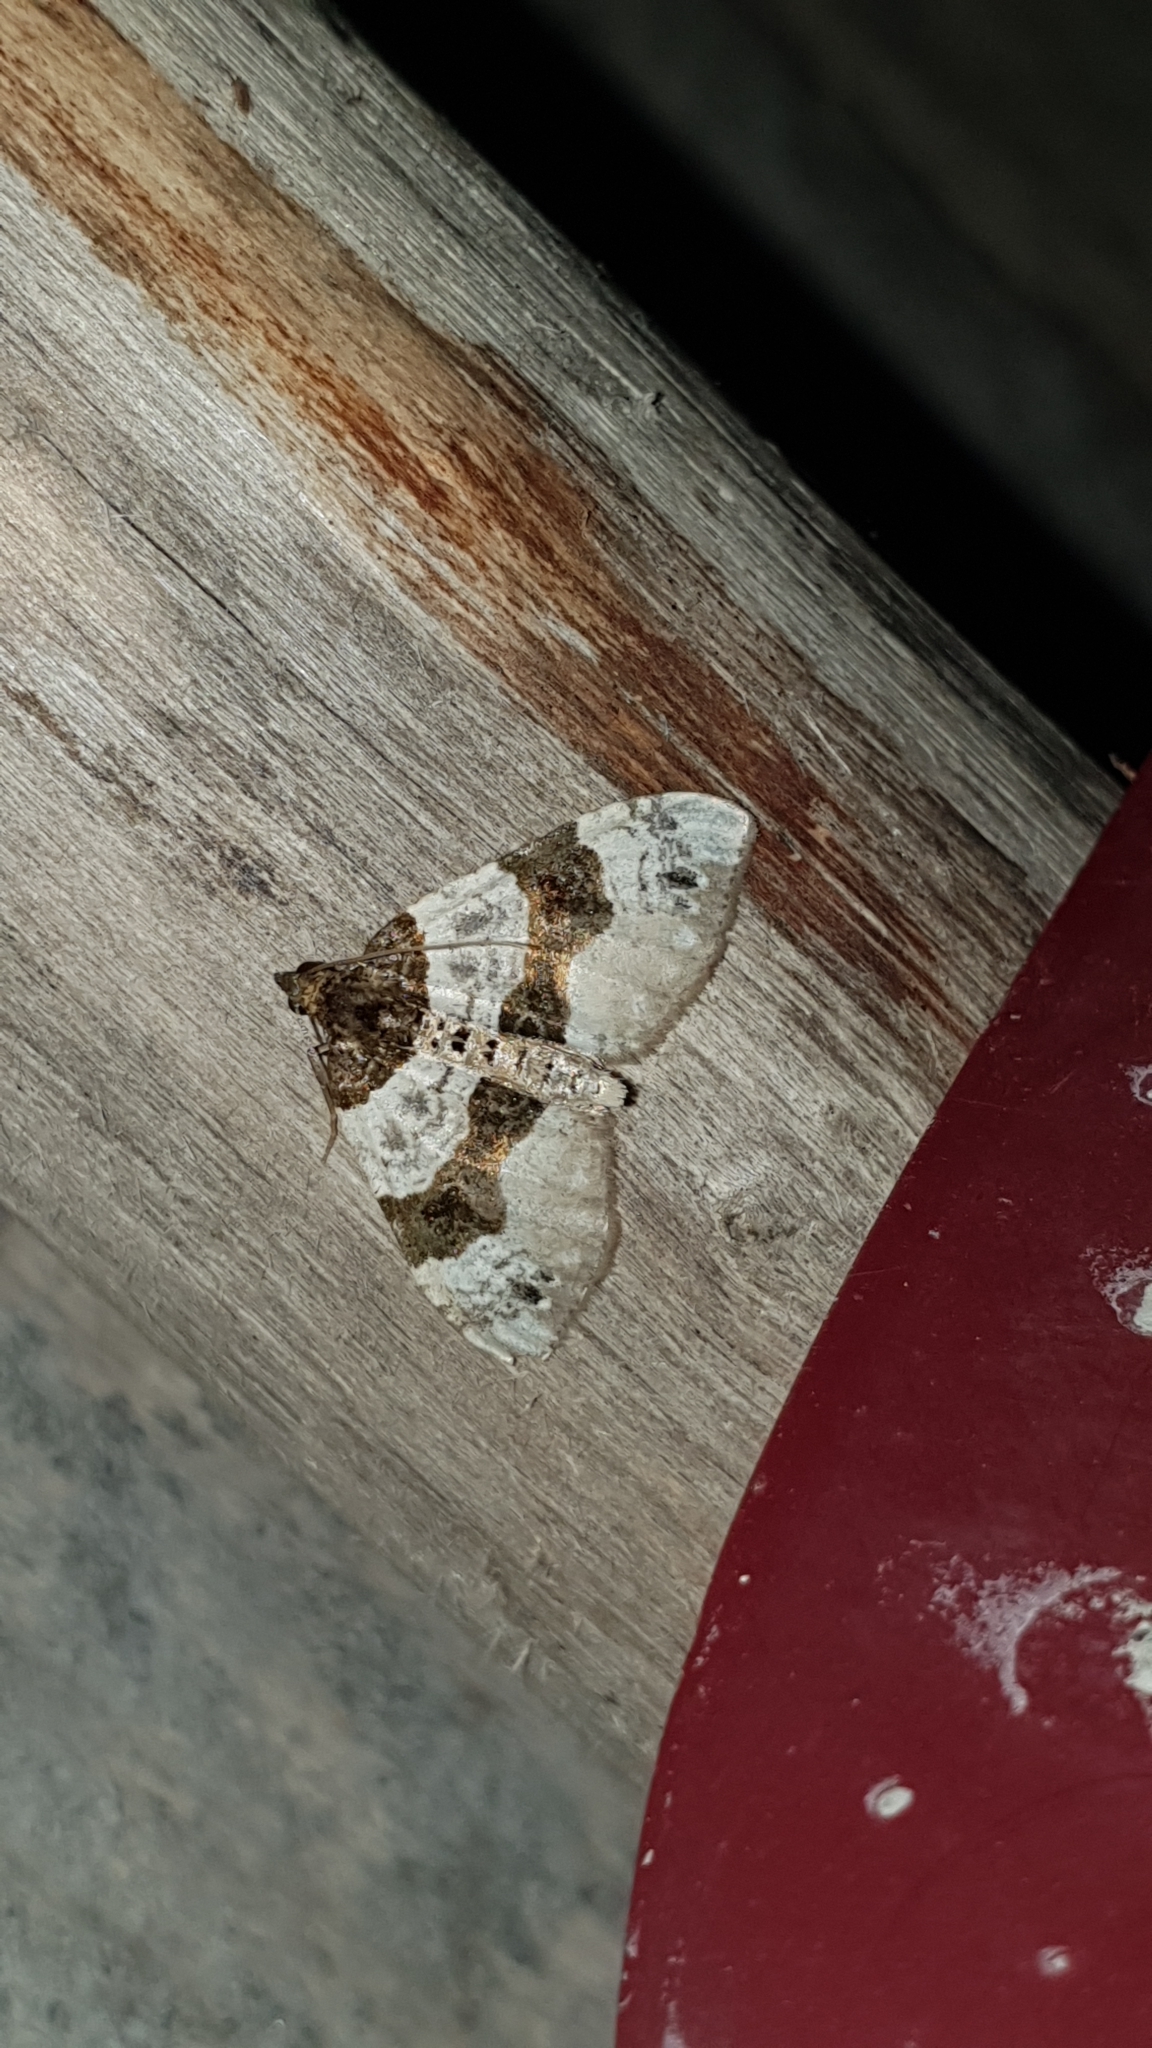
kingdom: Animalia
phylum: Arthropoda
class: Insecta
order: Lepidoptera
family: Geometridae
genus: Cosmorhoe
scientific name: Cosmorhoe ocellata
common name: Purple bar
